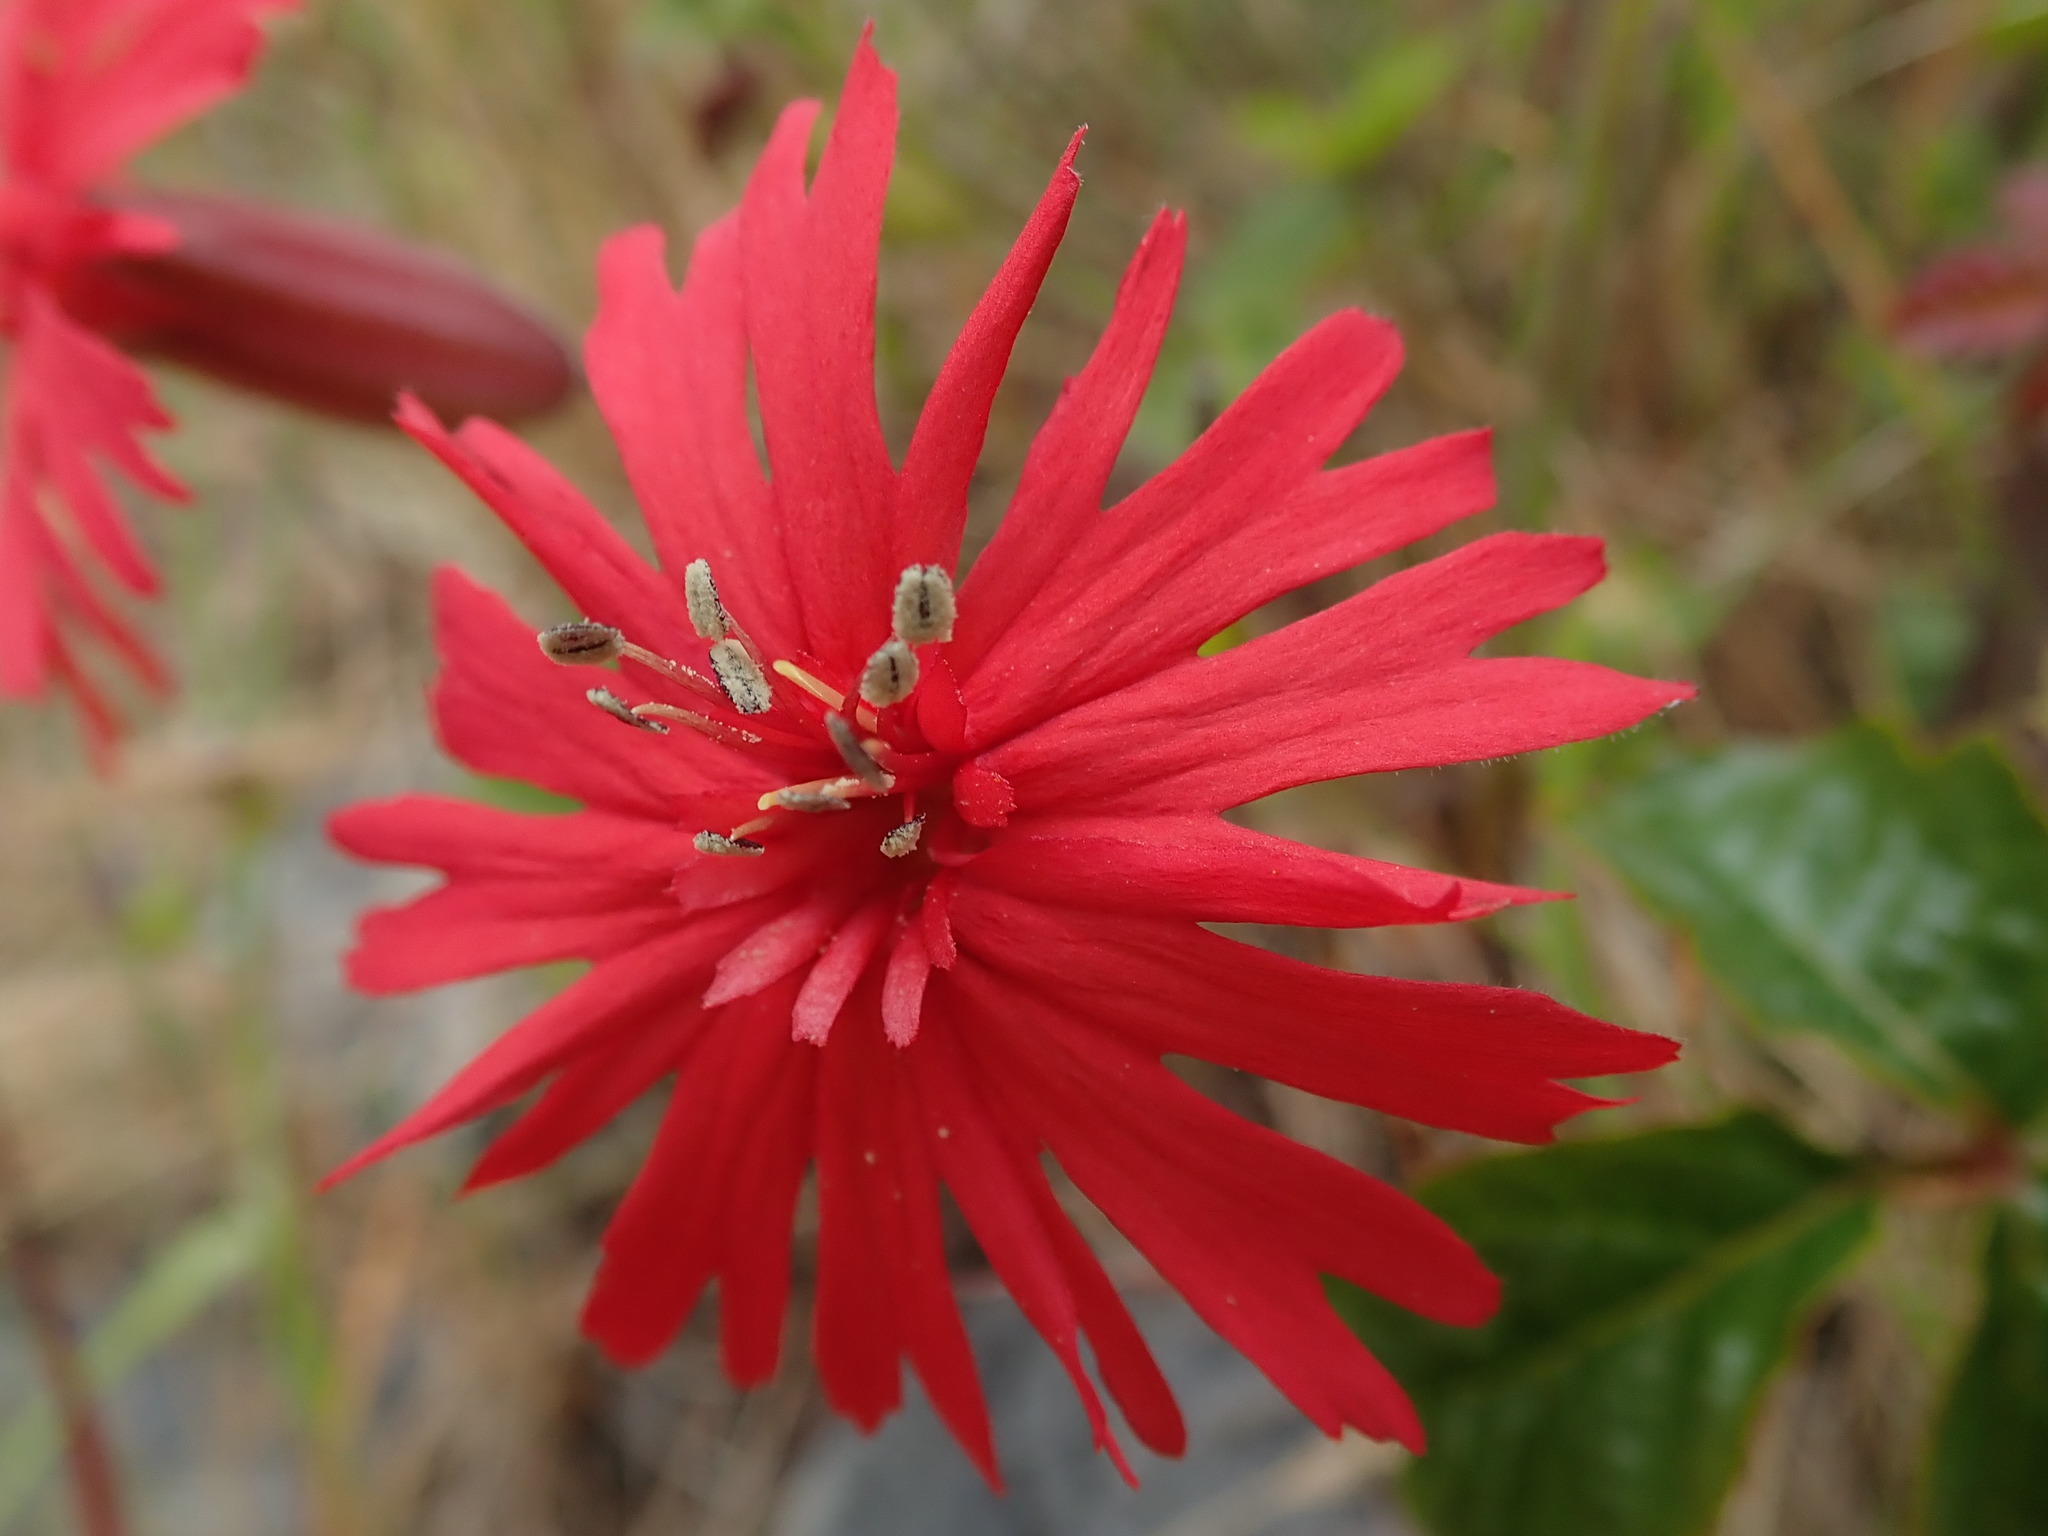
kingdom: Plantae
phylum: Tracheophyta
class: Magnoliopsida
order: Caryophyllales
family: Caryophyllaceae
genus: Silene
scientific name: Silene laciniata
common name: Indian-pink
